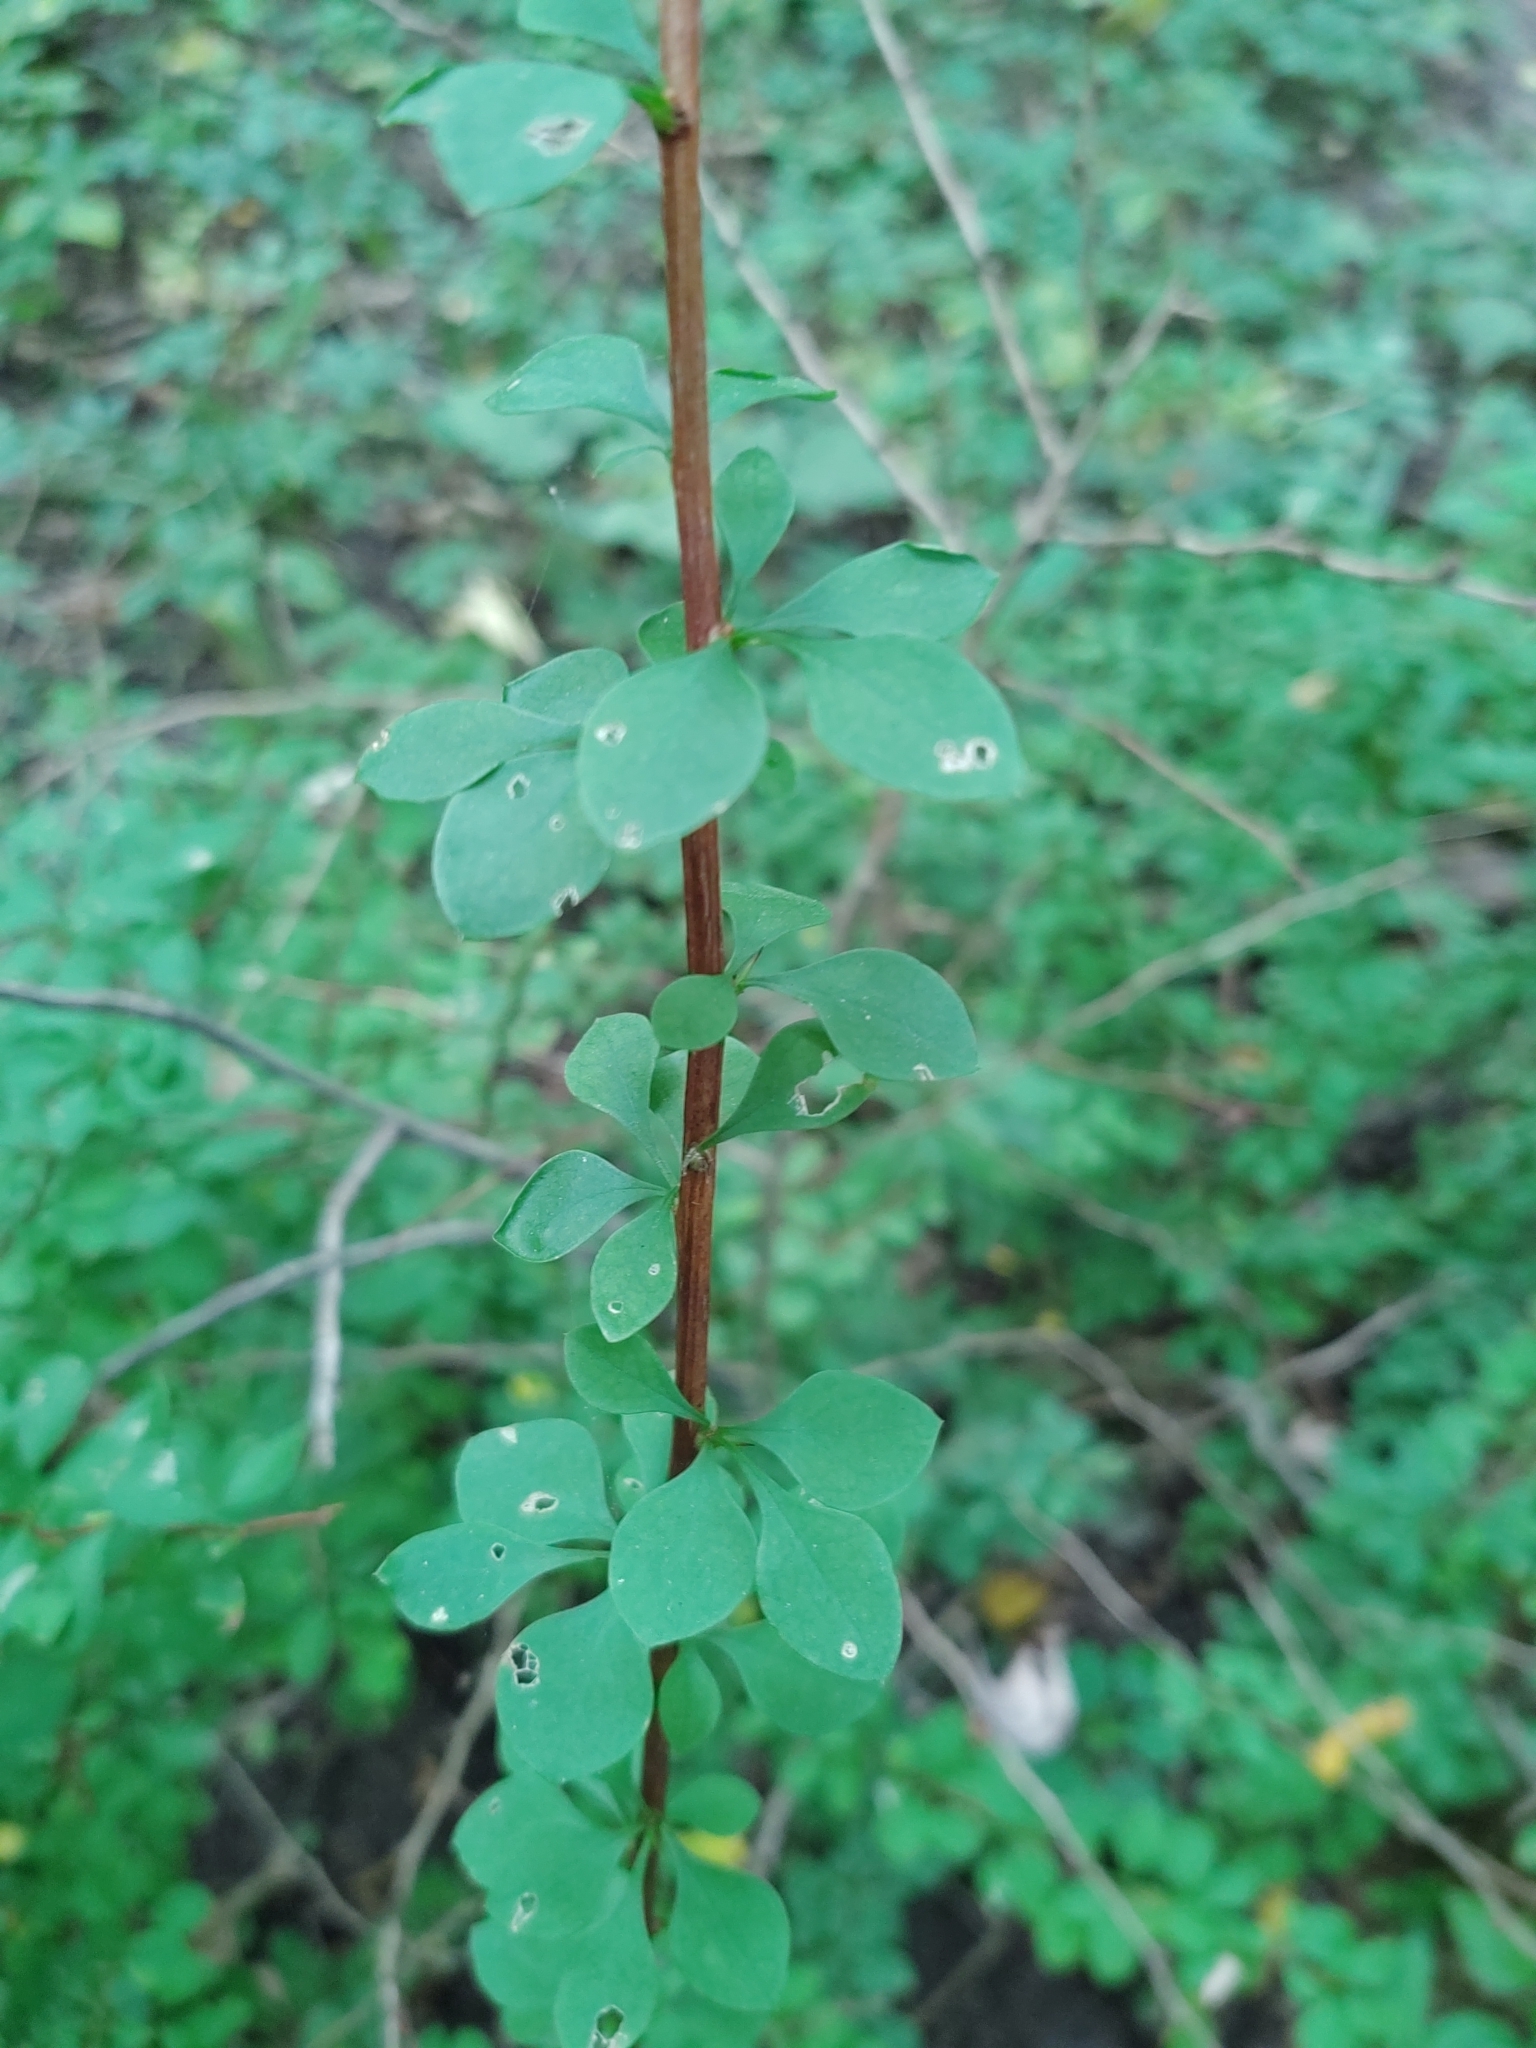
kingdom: Plantae
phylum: Tracheophyta
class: Magnoliopsida
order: Ranunculales
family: Berberidaceae
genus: Berberis
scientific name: Berberis thunbergii
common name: Japanese barberry
